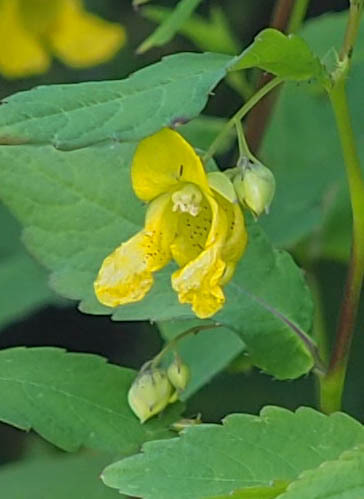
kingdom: Plantae
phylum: Tracheophyta
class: Magnoliopsida
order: Ericales
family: Balsaminaceae
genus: Impatiens
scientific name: Impatiens pallida
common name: Pale snapweed
